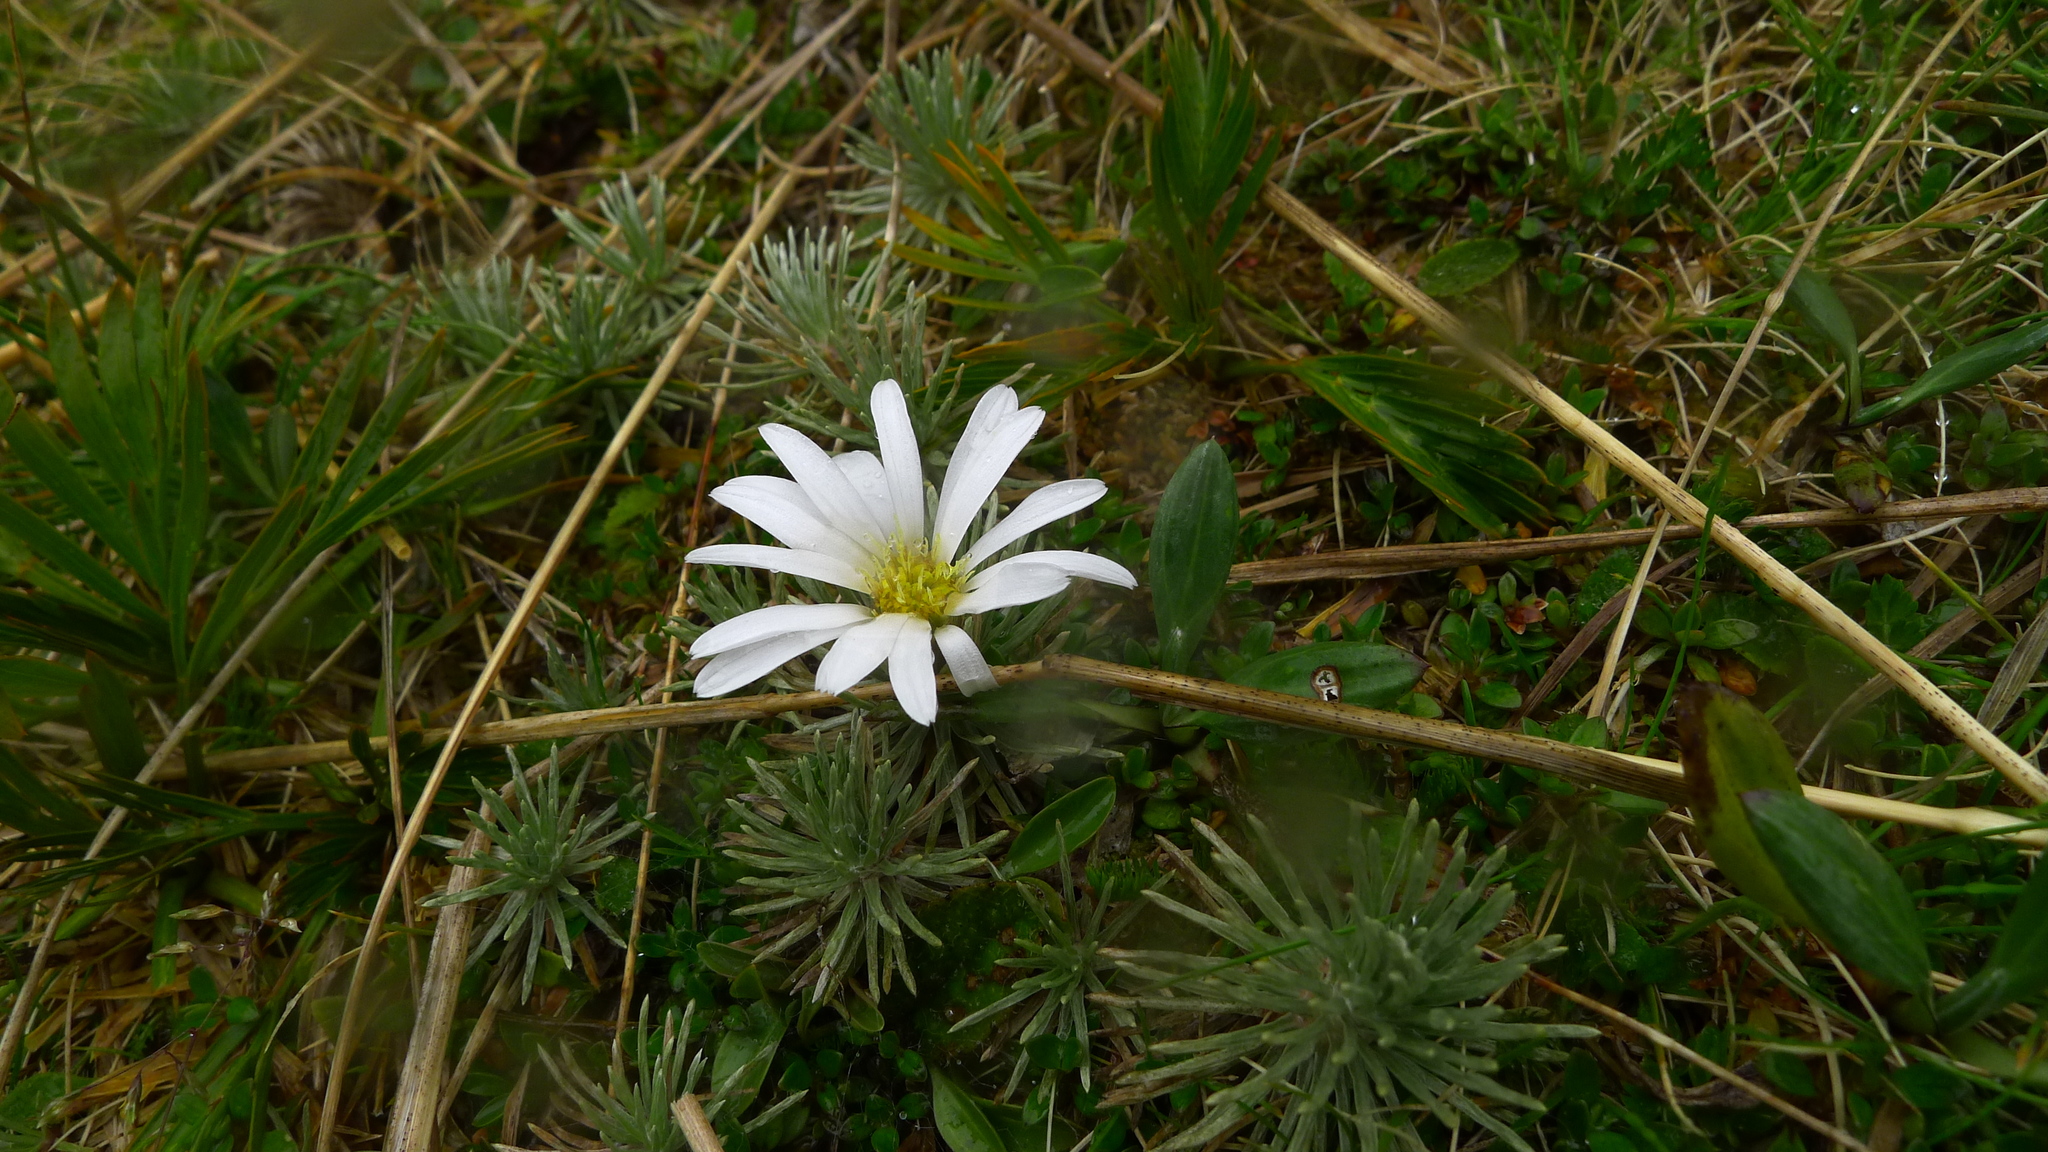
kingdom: Plantae
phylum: Tracheophyta
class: Magnoliopsida
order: Asterales
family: Asteraceae
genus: Celmisia
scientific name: Celmisia sessiliflora
